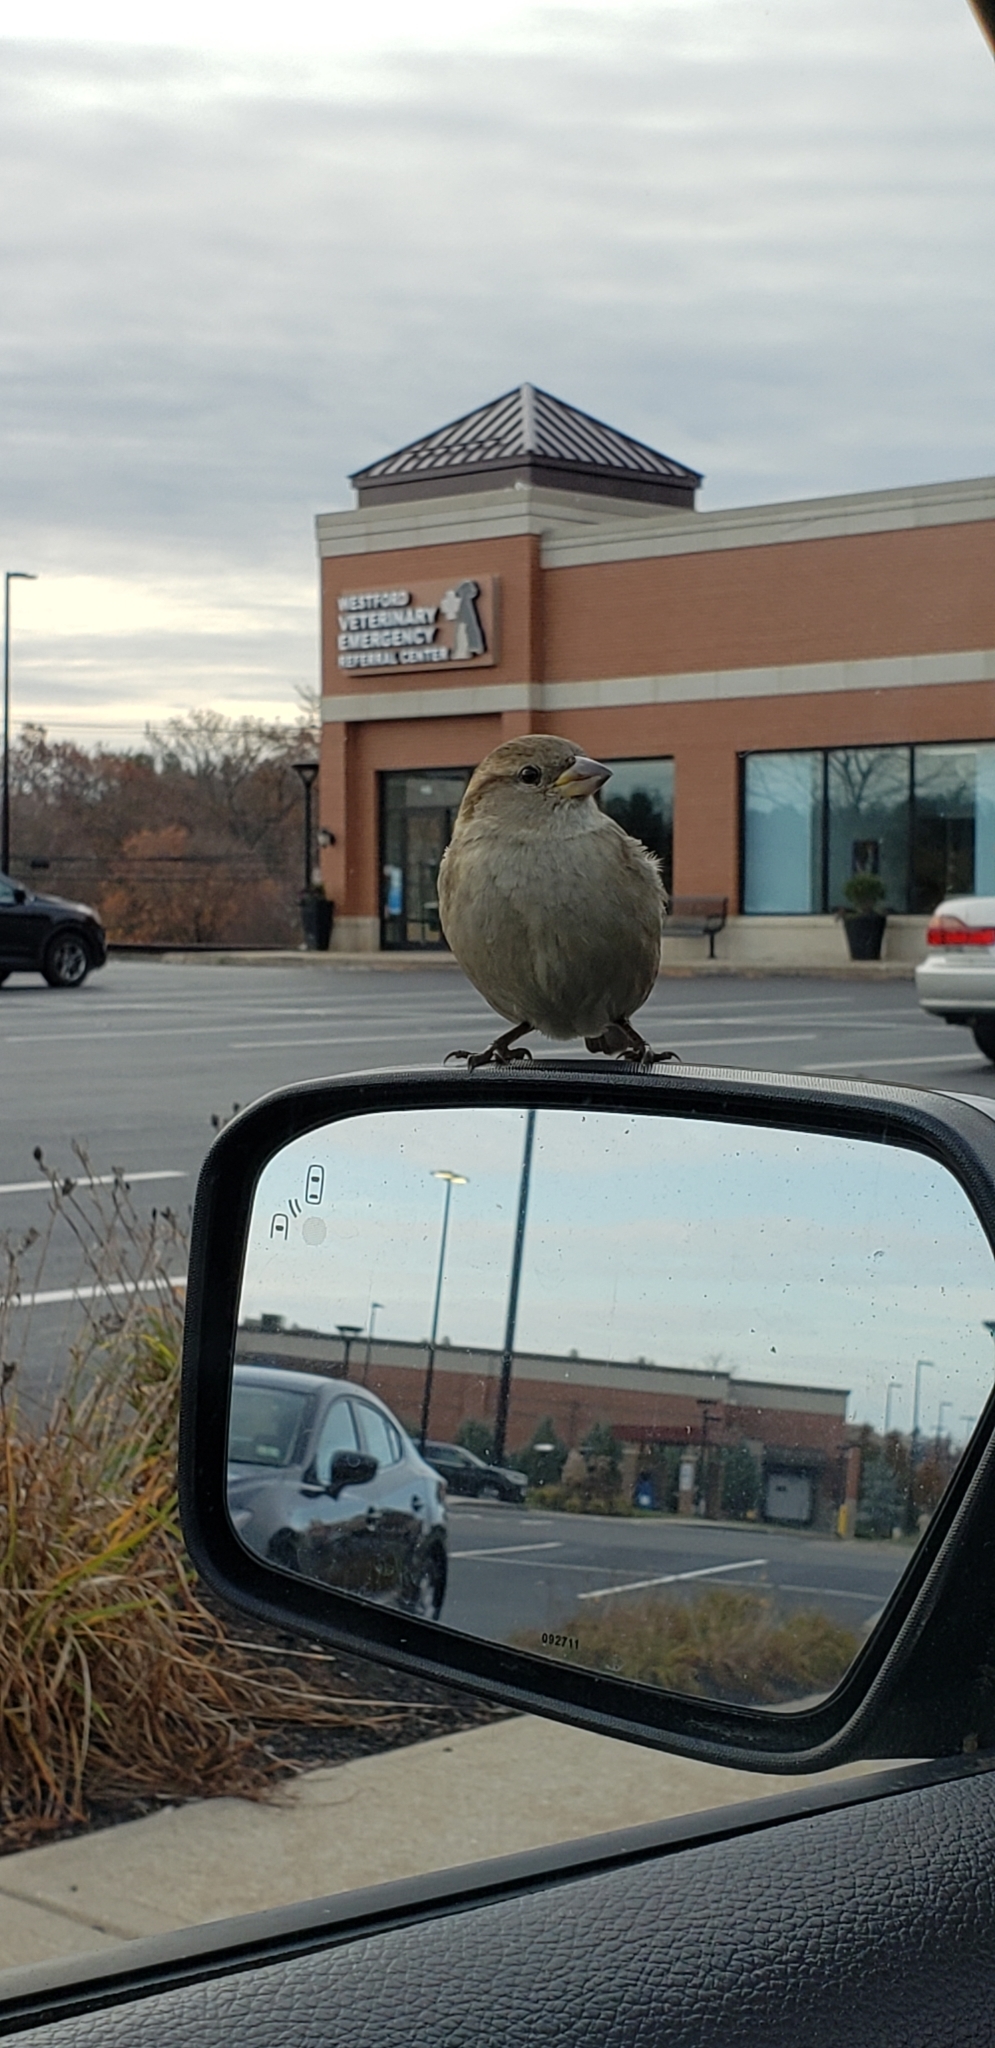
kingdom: Animalia
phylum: Chordata
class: Aves
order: Passeriformes
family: Passeridae
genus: Passer
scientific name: Passer domesticus
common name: House sparrow
